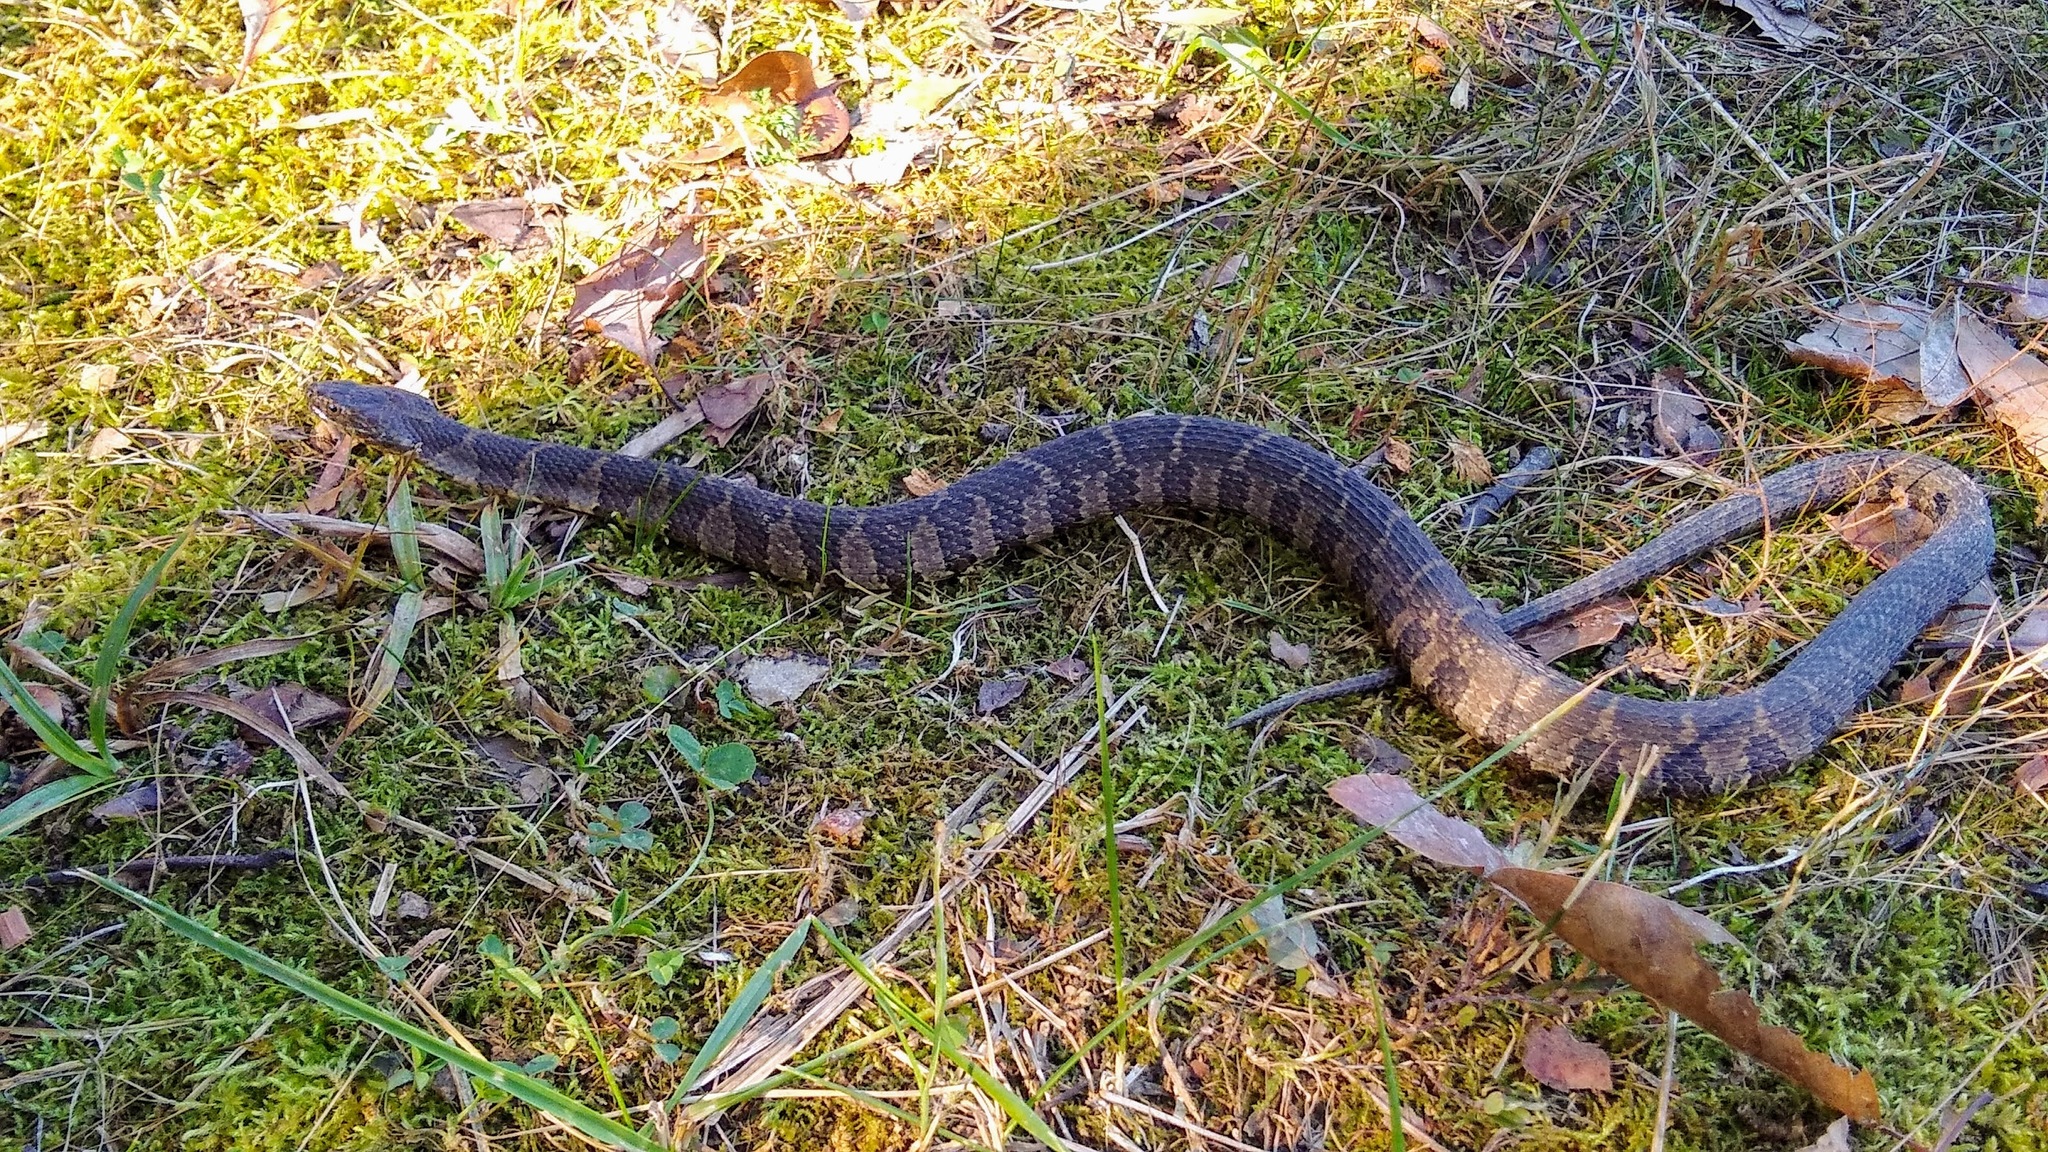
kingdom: Animalia
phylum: Chordata
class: Squamata
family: Colubridae
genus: Nerodia
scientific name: Nerodia sipedon
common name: Northern water snake
